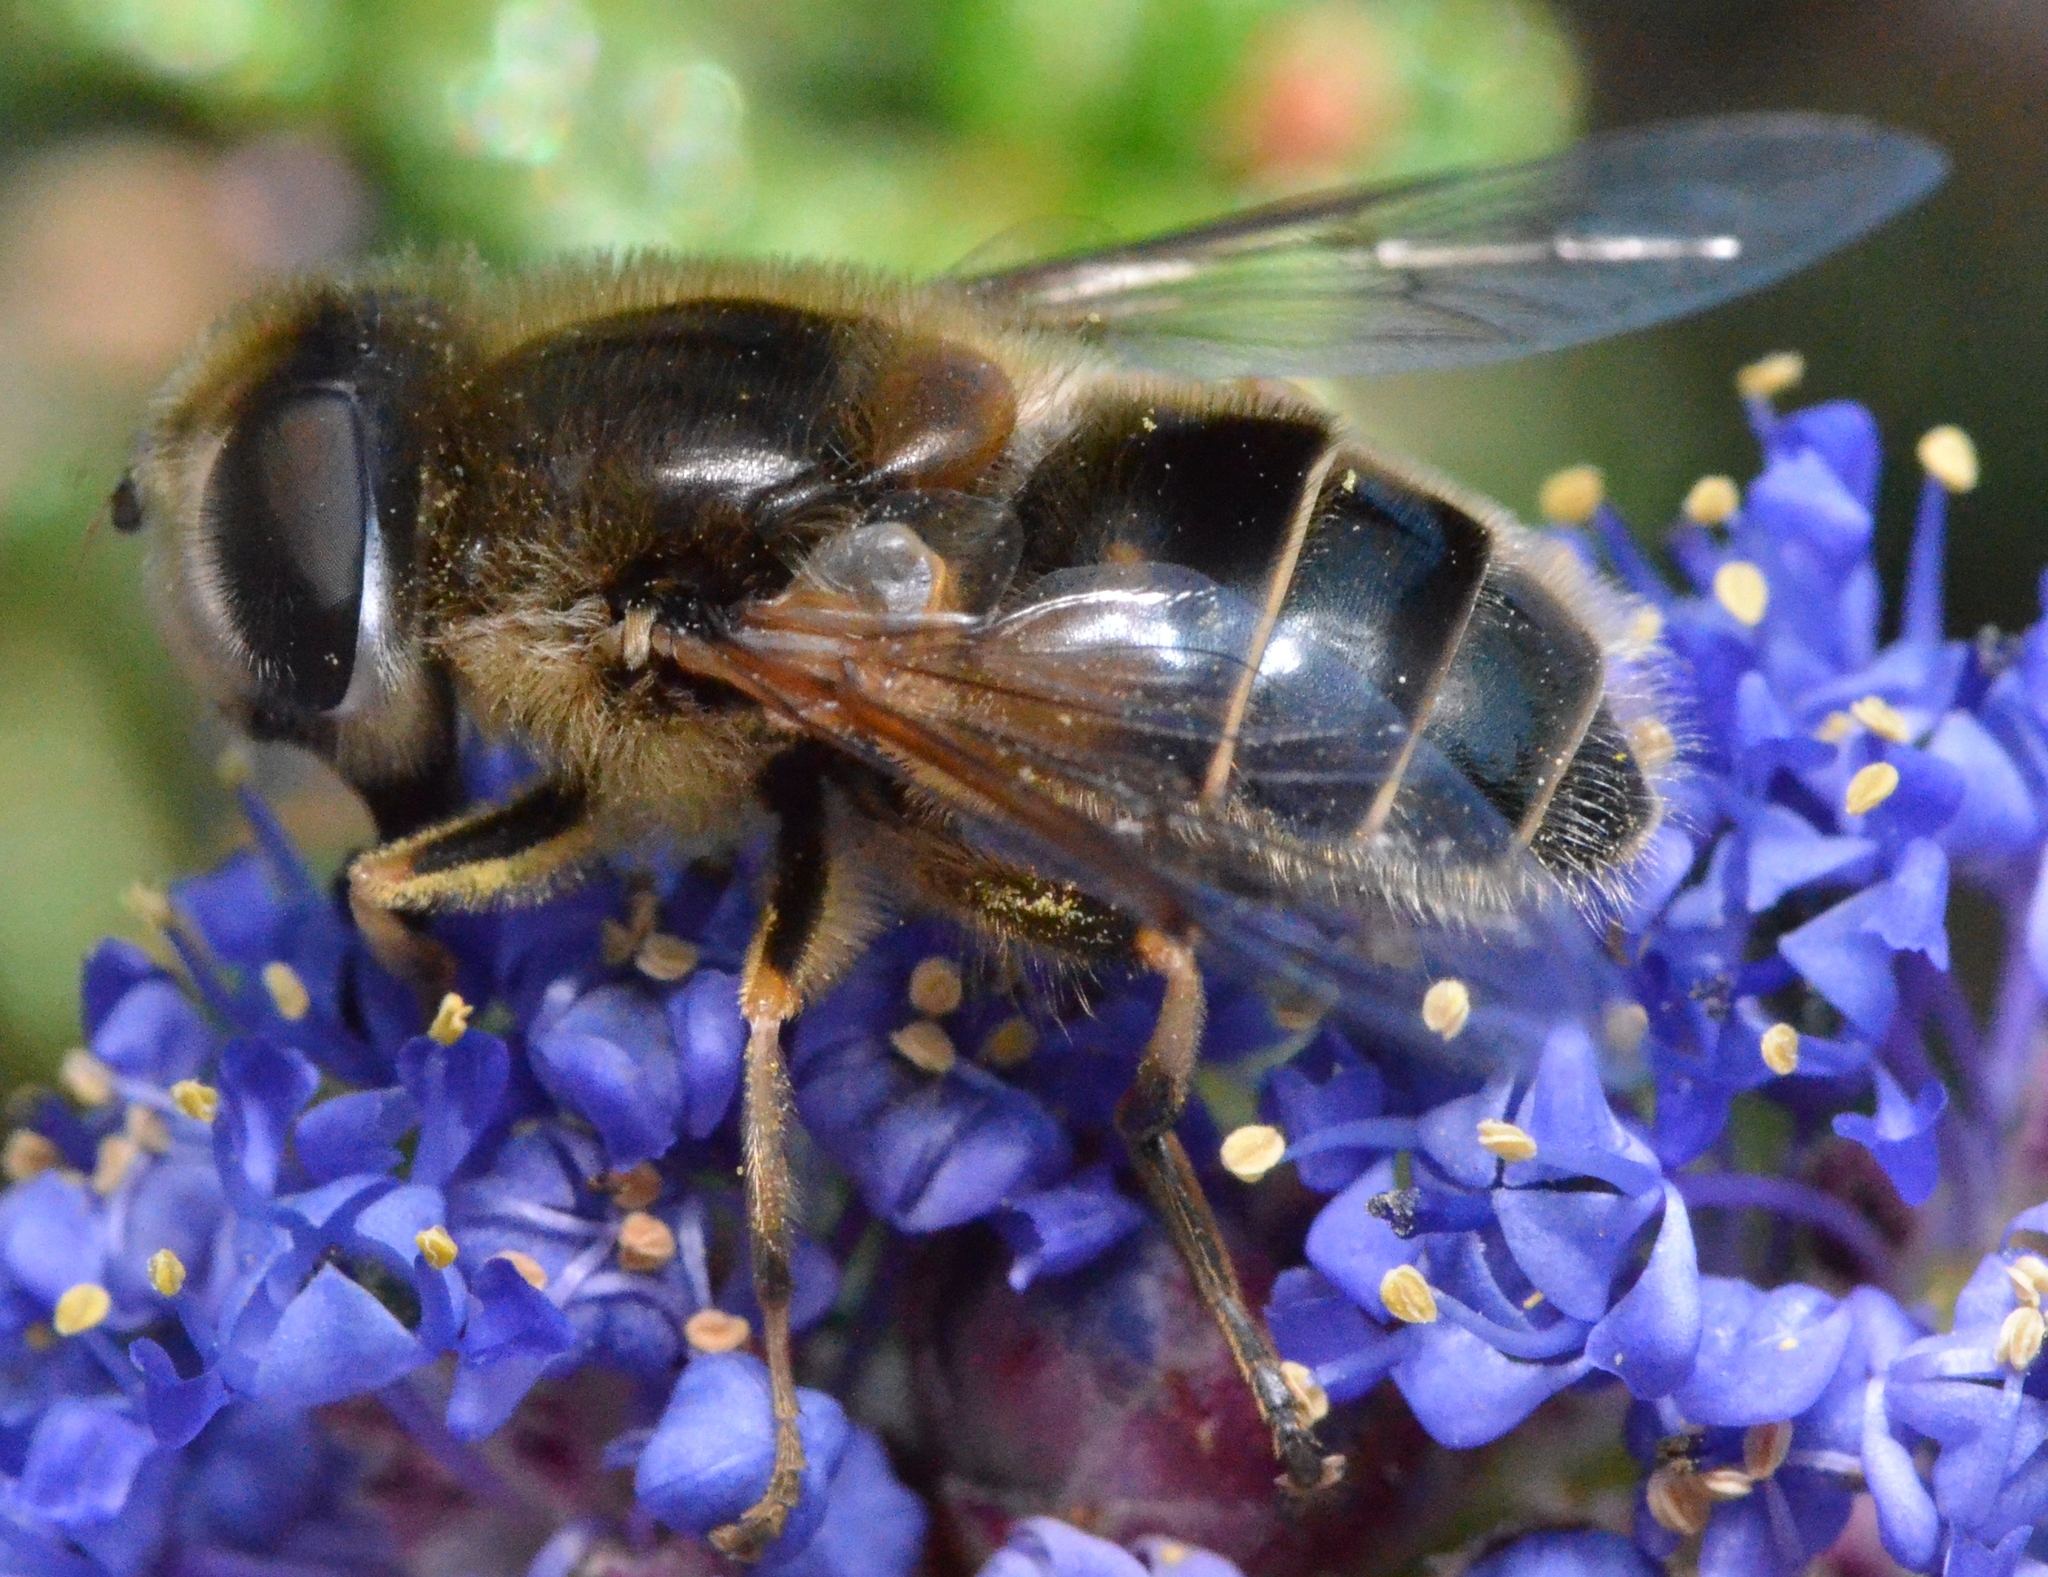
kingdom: Animalia
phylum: Arthropoda
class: Insecta
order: Diptera
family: Syrphidae
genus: Eristalis
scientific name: Eristalis hirta
